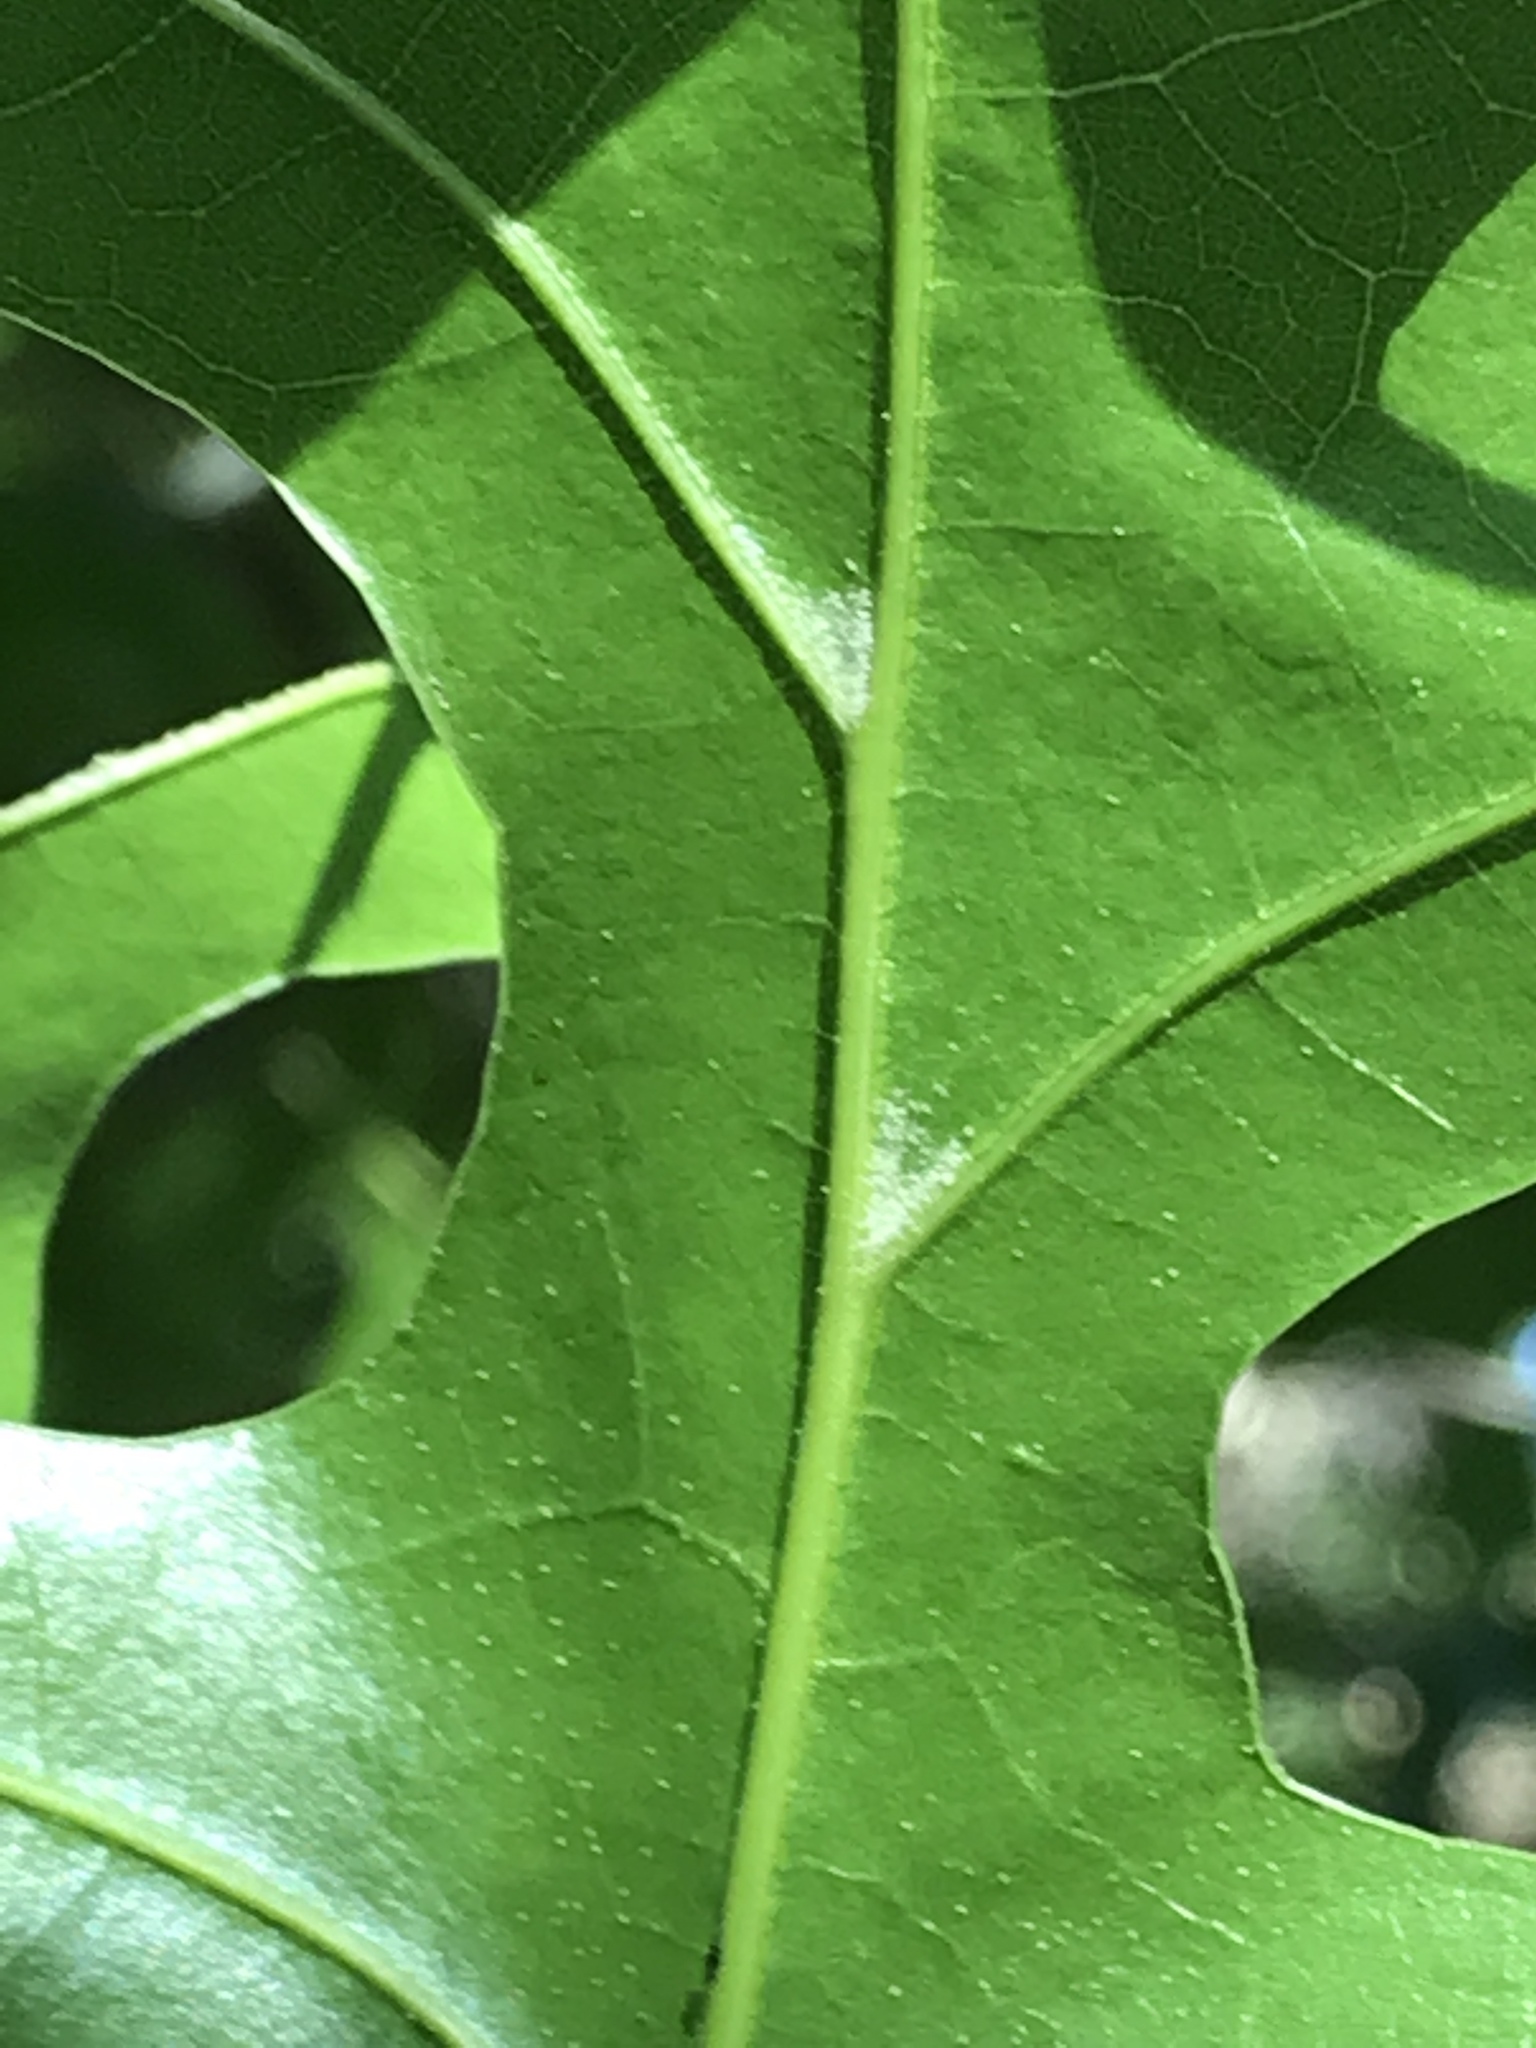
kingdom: Plantae
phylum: Tracheophyta
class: Magnoliopsida
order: Fagales
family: Fagaceae
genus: Quercus
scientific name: Quercus buckleyi
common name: Buckley oak
